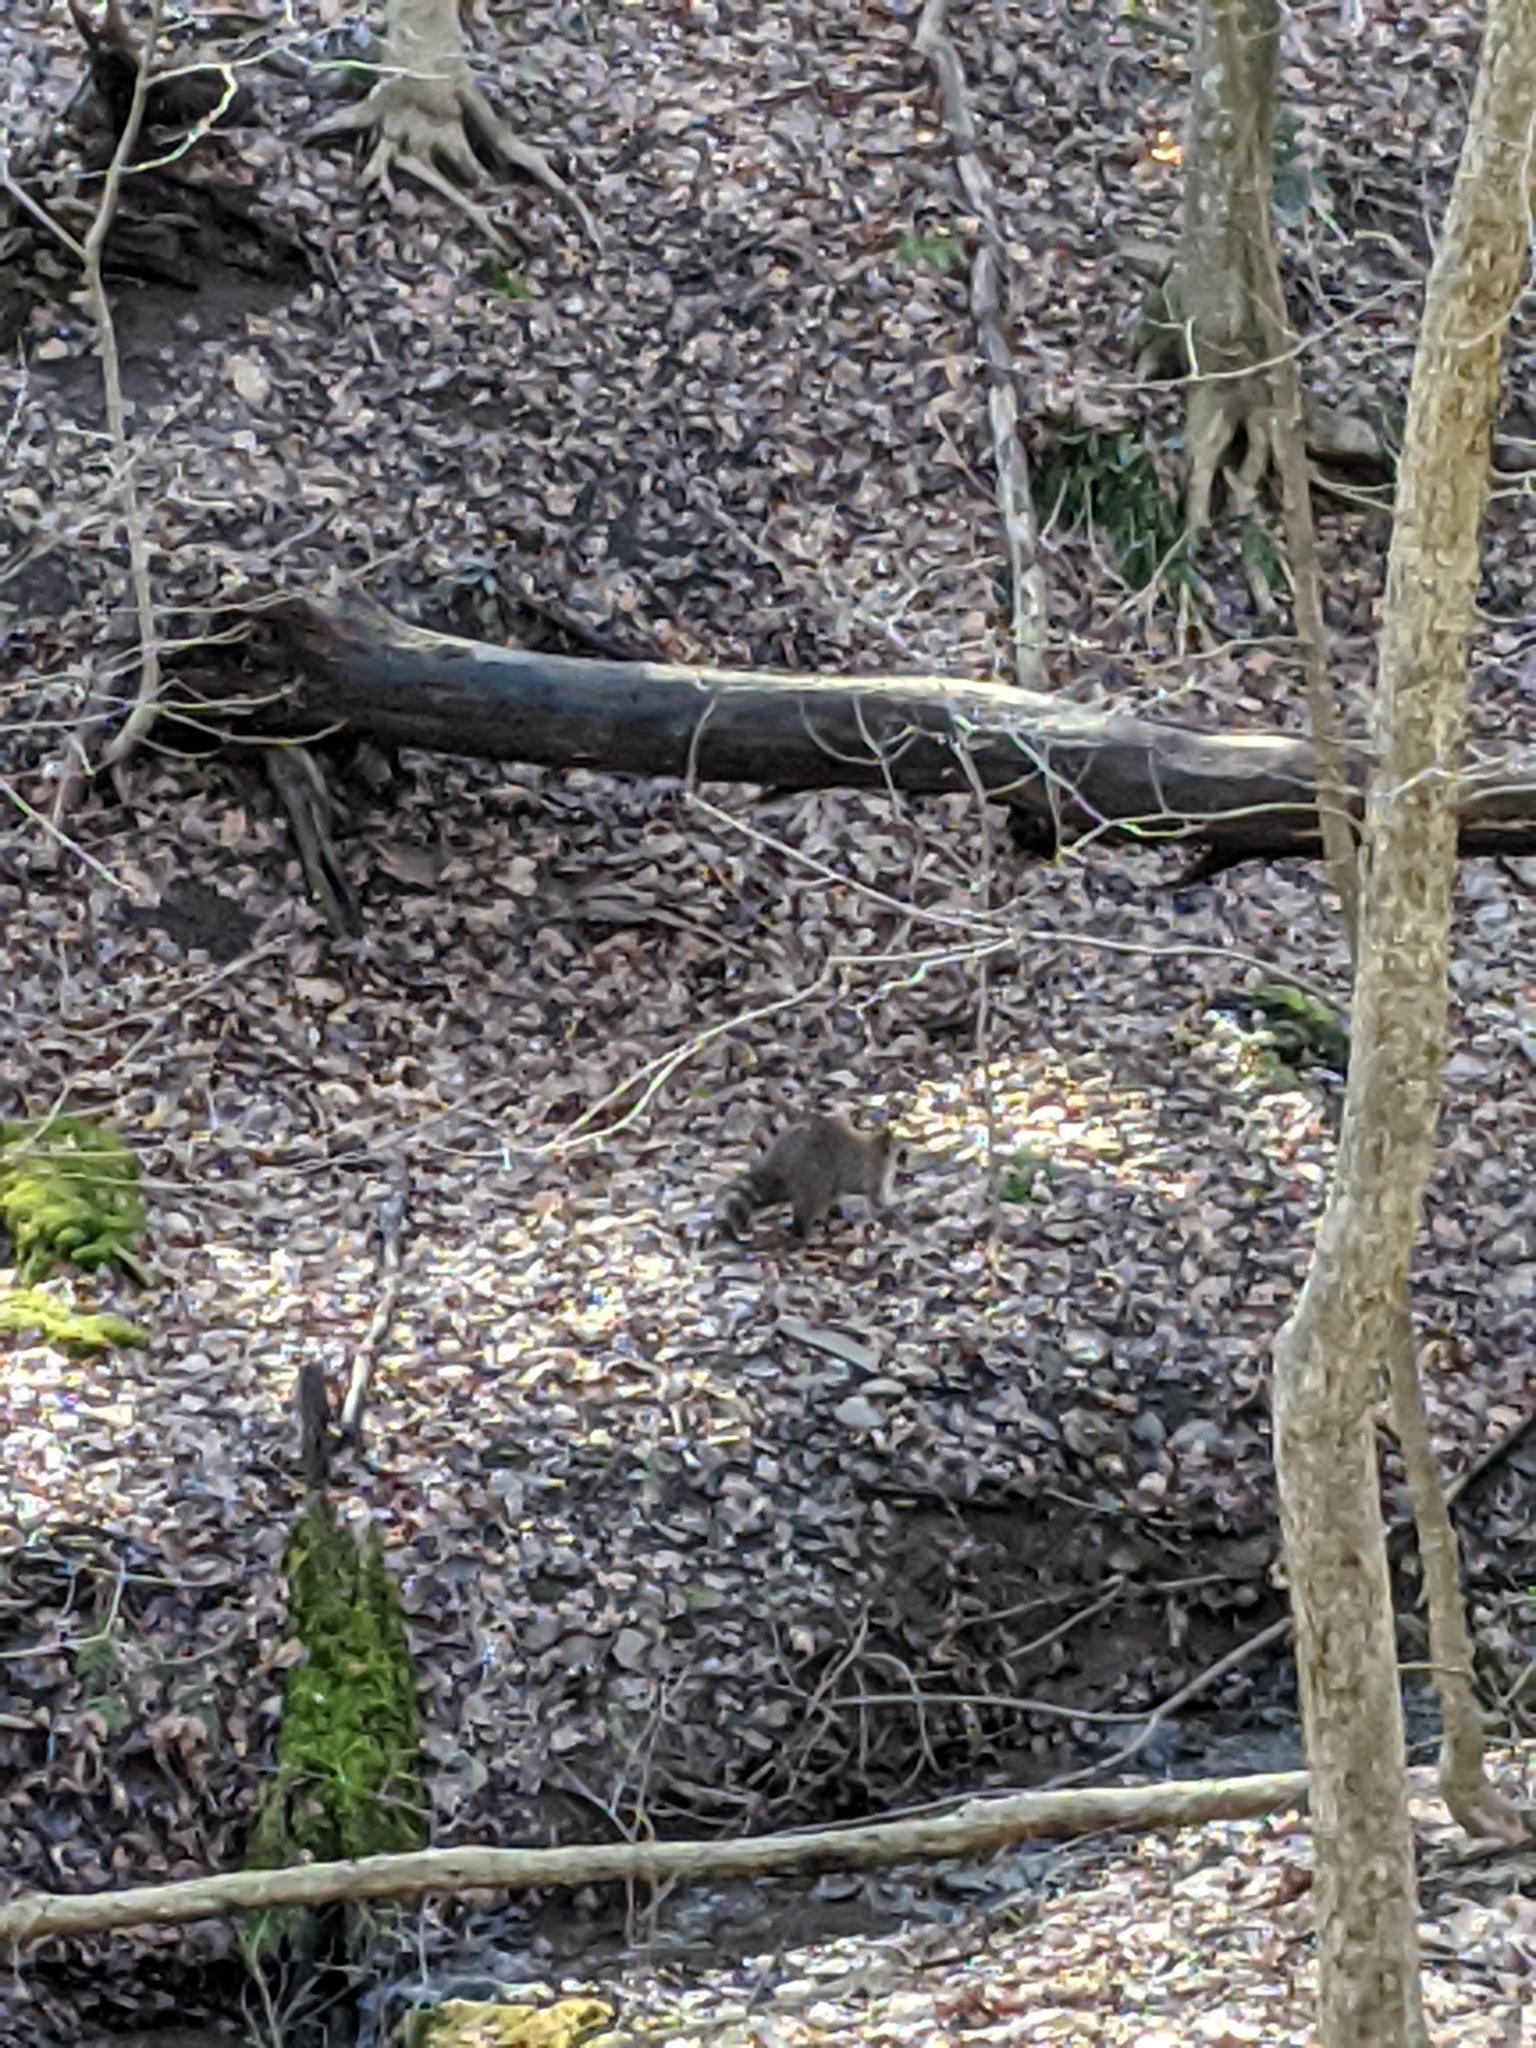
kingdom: Animalia
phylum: Chordata
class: Mammalia
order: Carnivora
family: Procyonidae
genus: Procyon
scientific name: Procyon lotor
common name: Raccoon
